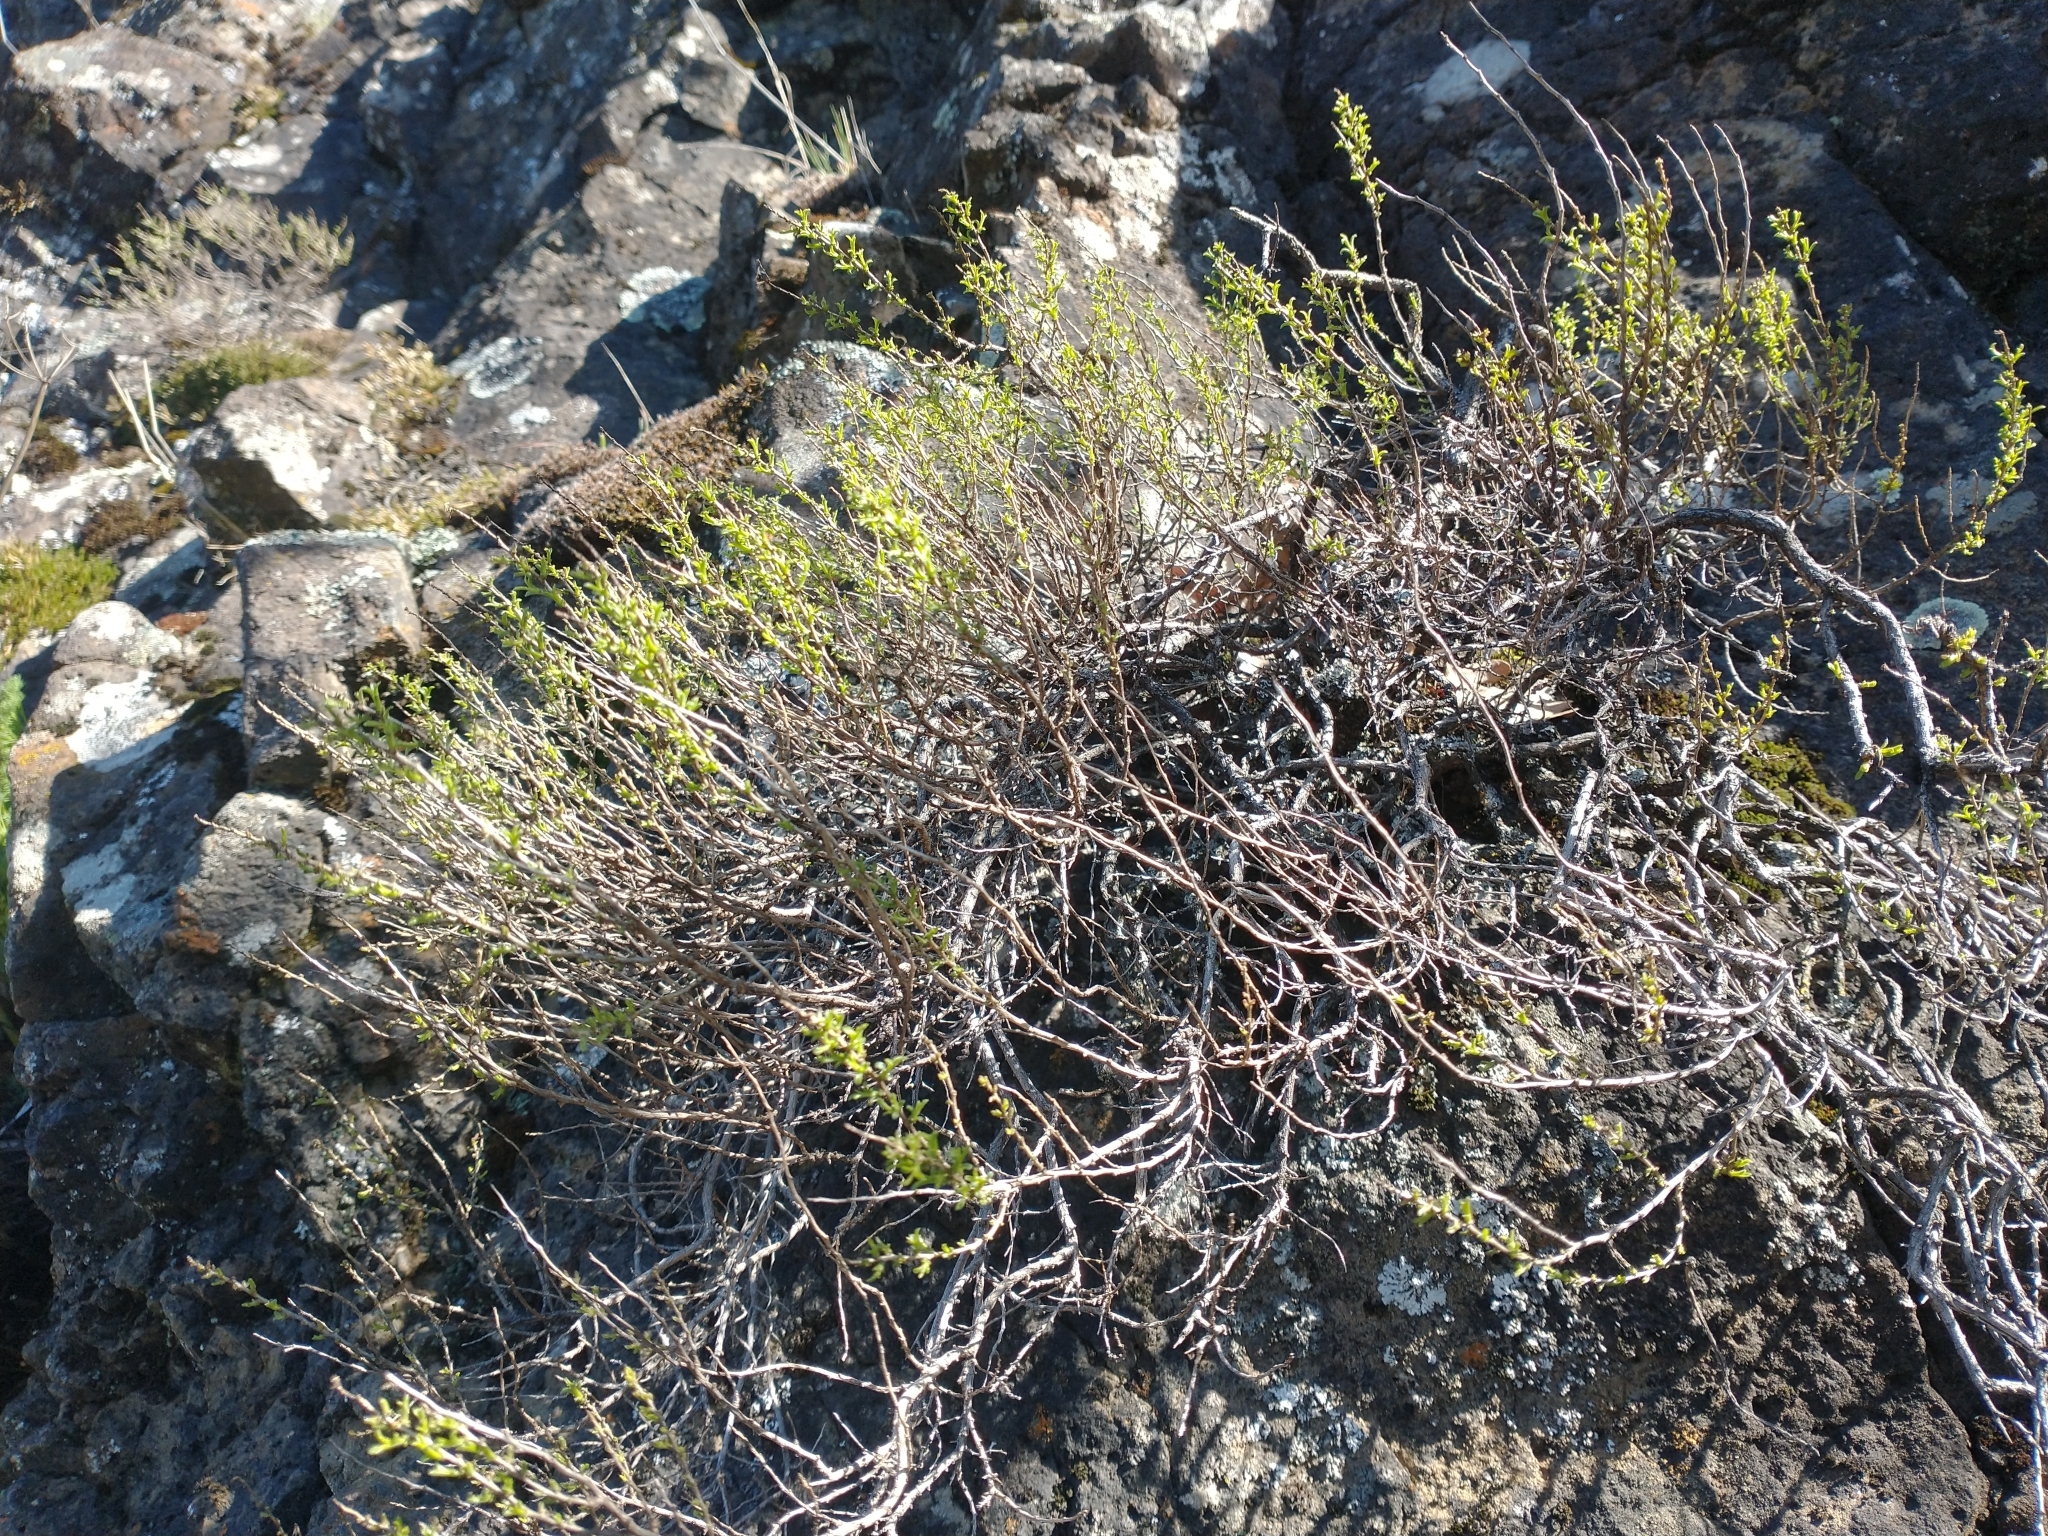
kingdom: Plantae
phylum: Tracheophyta
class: Magnoliopsida
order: Asterales
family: Asteraceae
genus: Ericameria
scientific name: Ericameria resinosa
